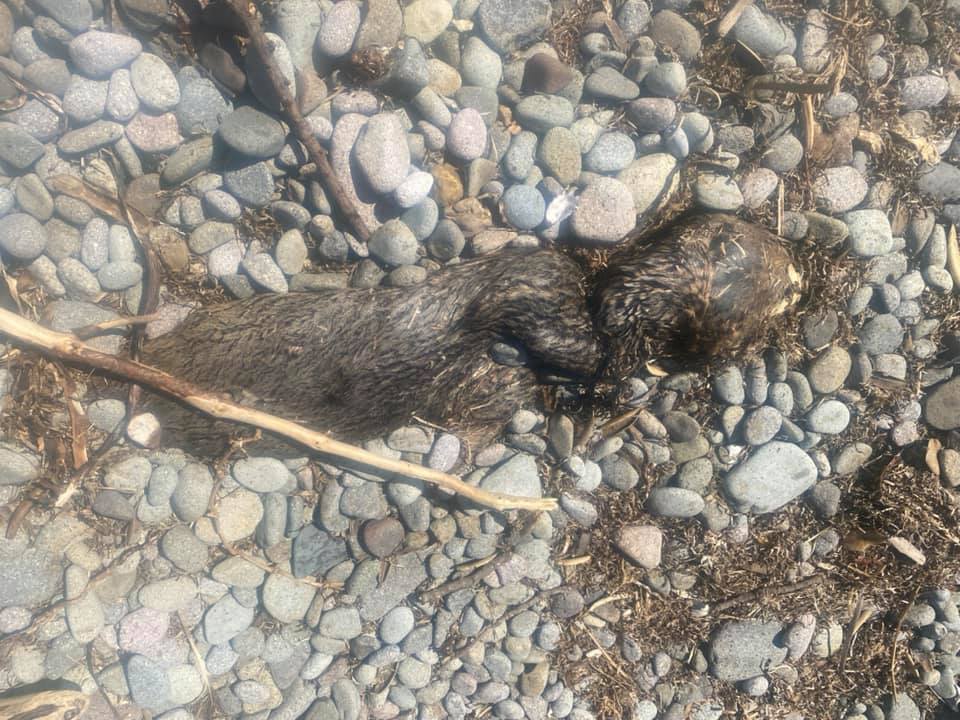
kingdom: Animalia
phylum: Chordata
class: Mammalia
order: Carnivora
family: Otariidae
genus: Arctocephalus
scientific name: Arctocephalus forsteri
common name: New zealand fur seal
